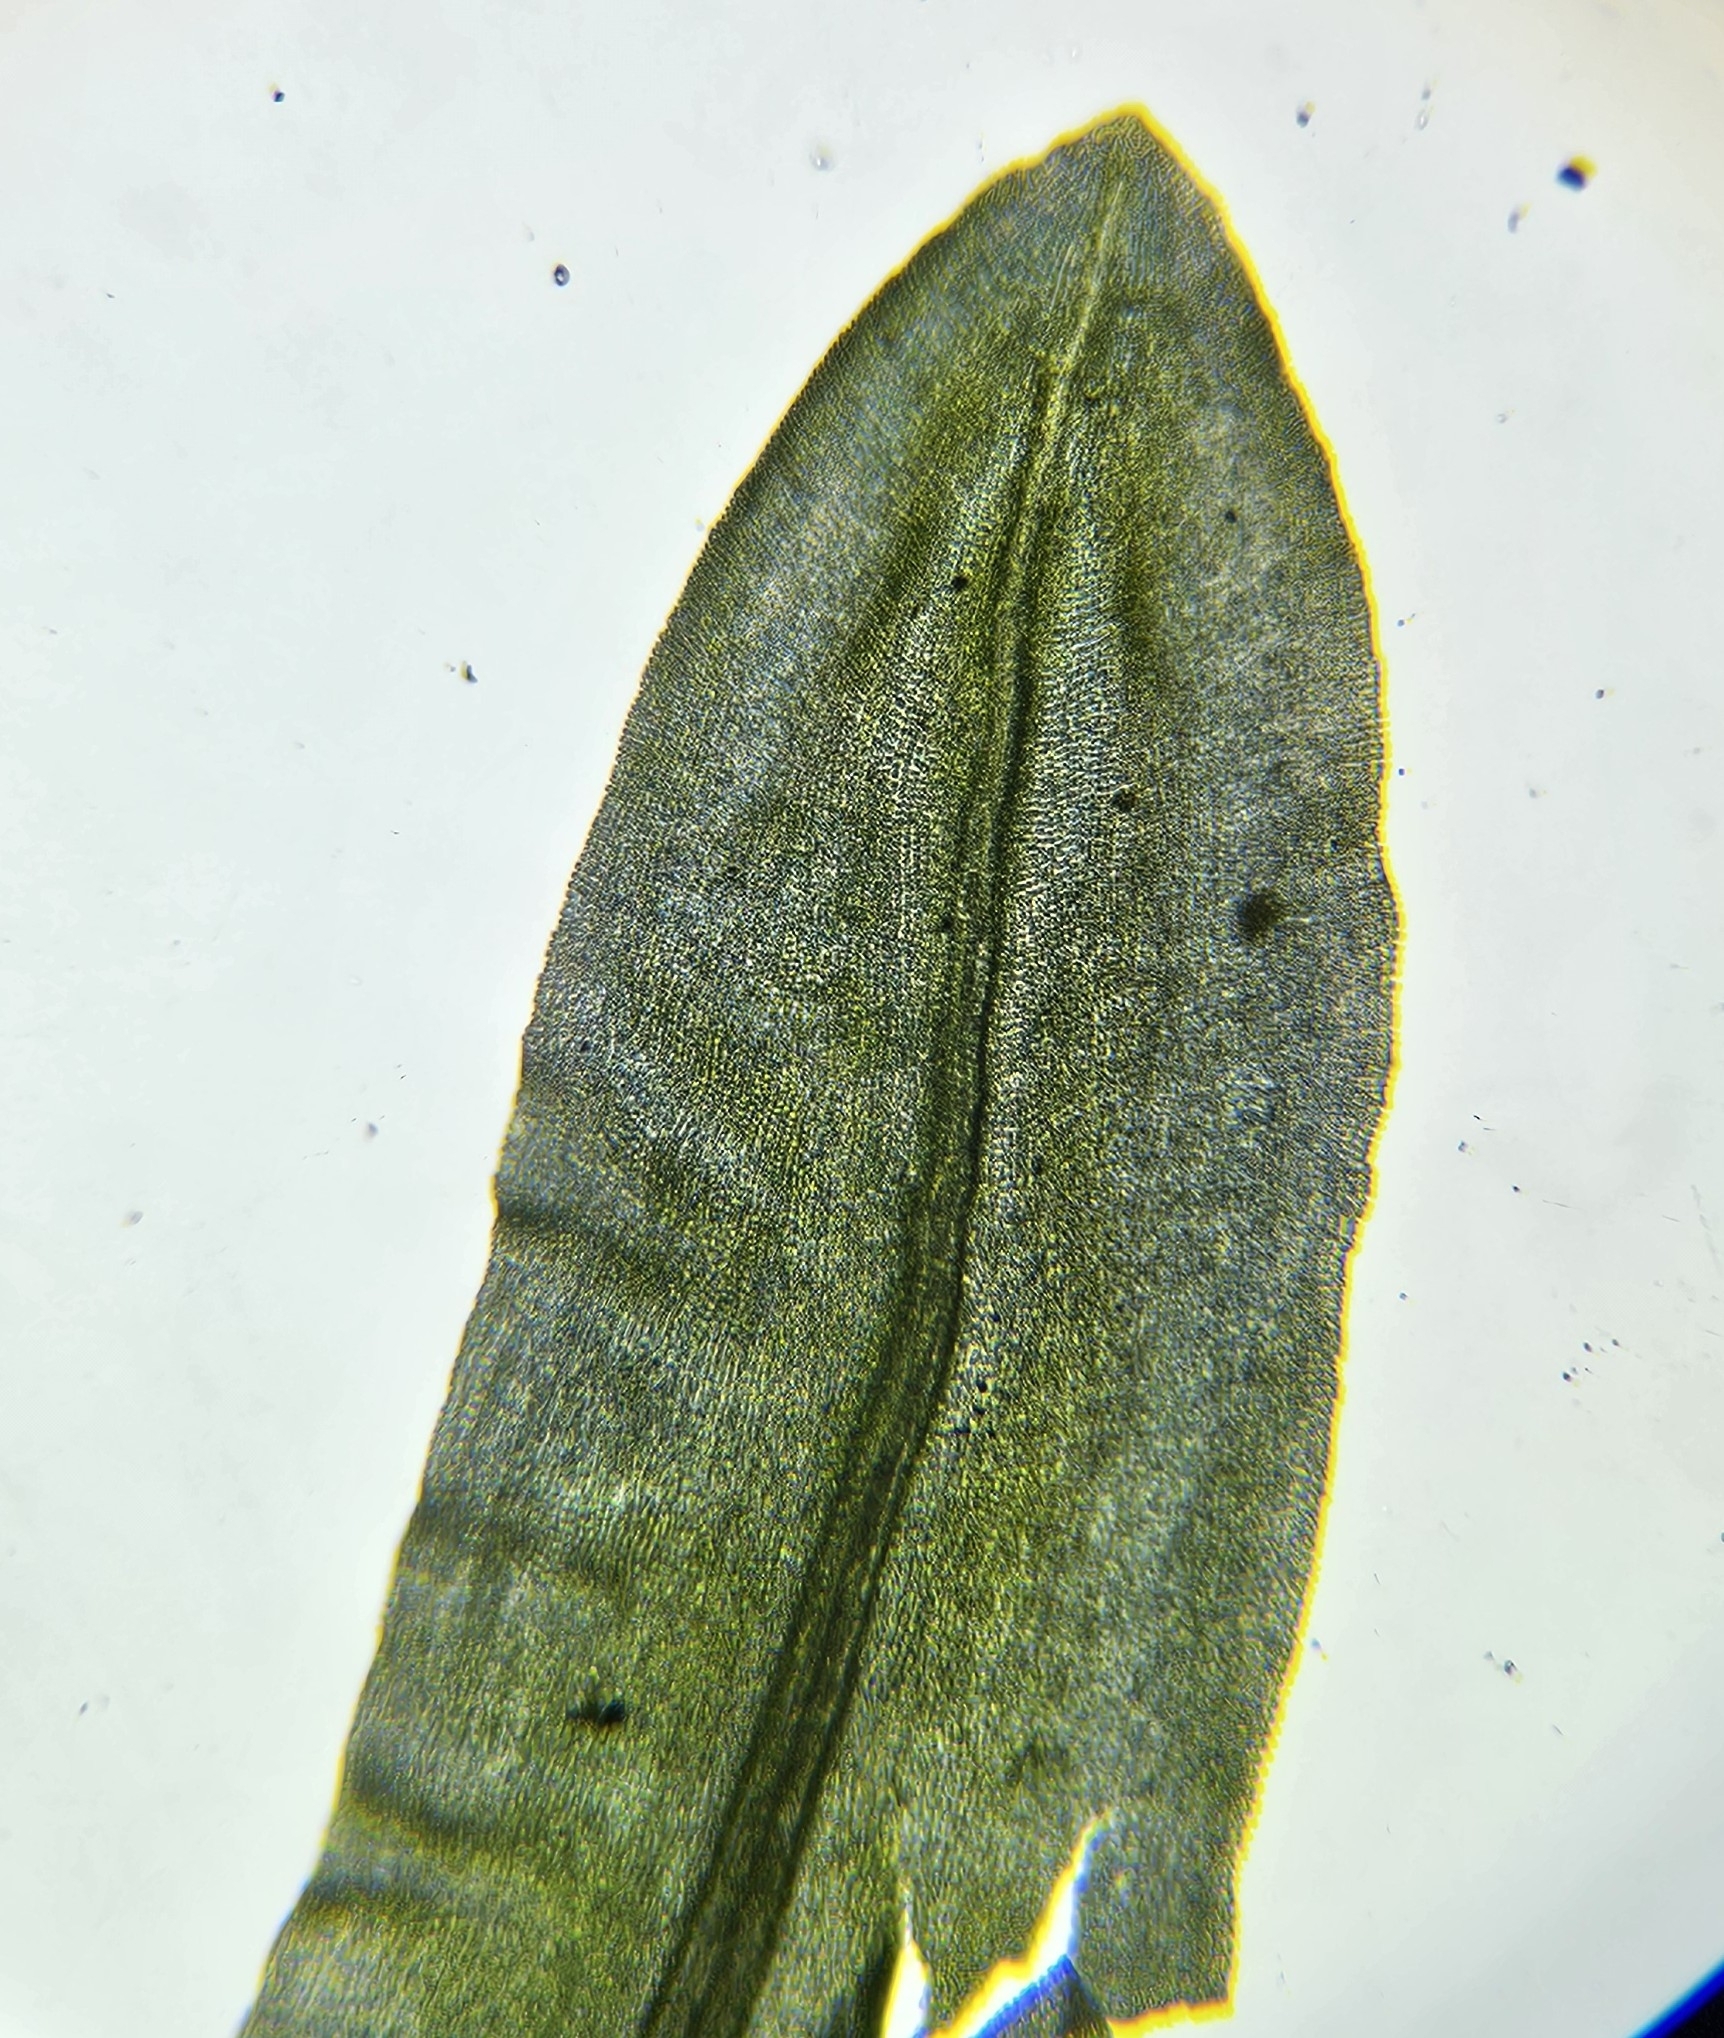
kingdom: Plantae
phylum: Bryophyta
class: Bryopsida
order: Encalyptales
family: Encalyptaceae
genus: Encalypta
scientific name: Encalypta streptocarpa
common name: Spiral extinguisher-moss
